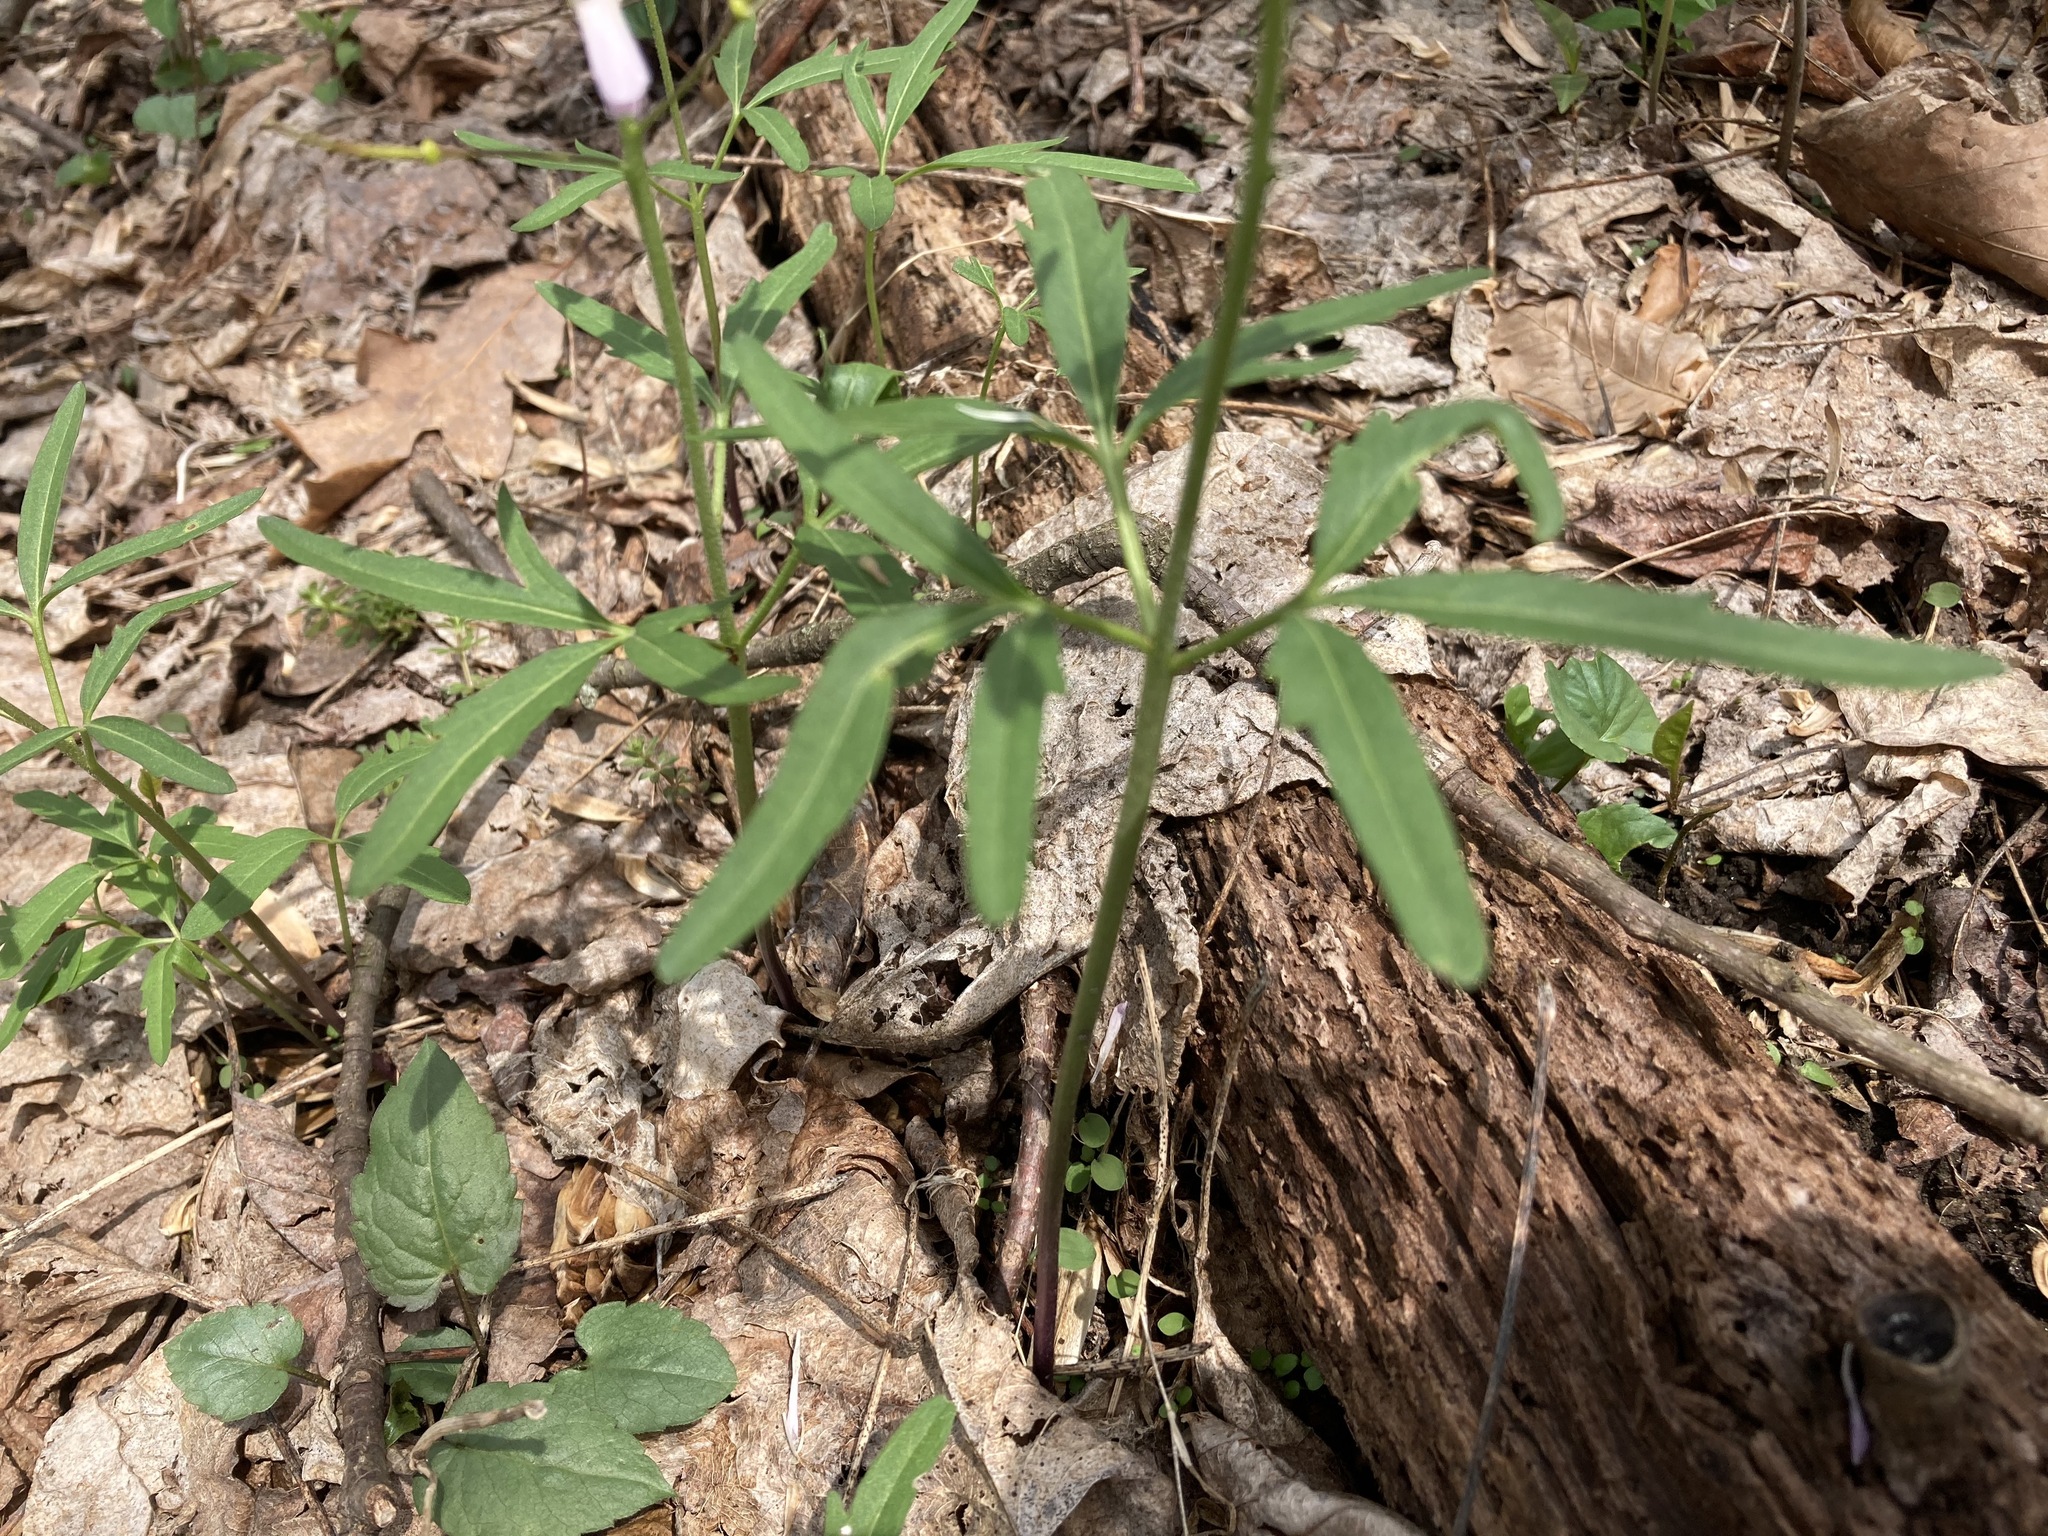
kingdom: Plantae
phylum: Tracheophyta
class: Magnoliopsida
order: Brassicales
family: Brassicaceae
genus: Cardamine
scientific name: Cardamine concatenata
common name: Cut-leaf toothcup
